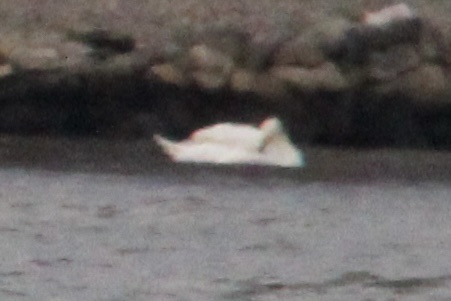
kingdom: Animalia
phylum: Chordata
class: Aves
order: Anseriformes
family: Anatidae
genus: Cygnus
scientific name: Cygnus olor
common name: Mute swan
